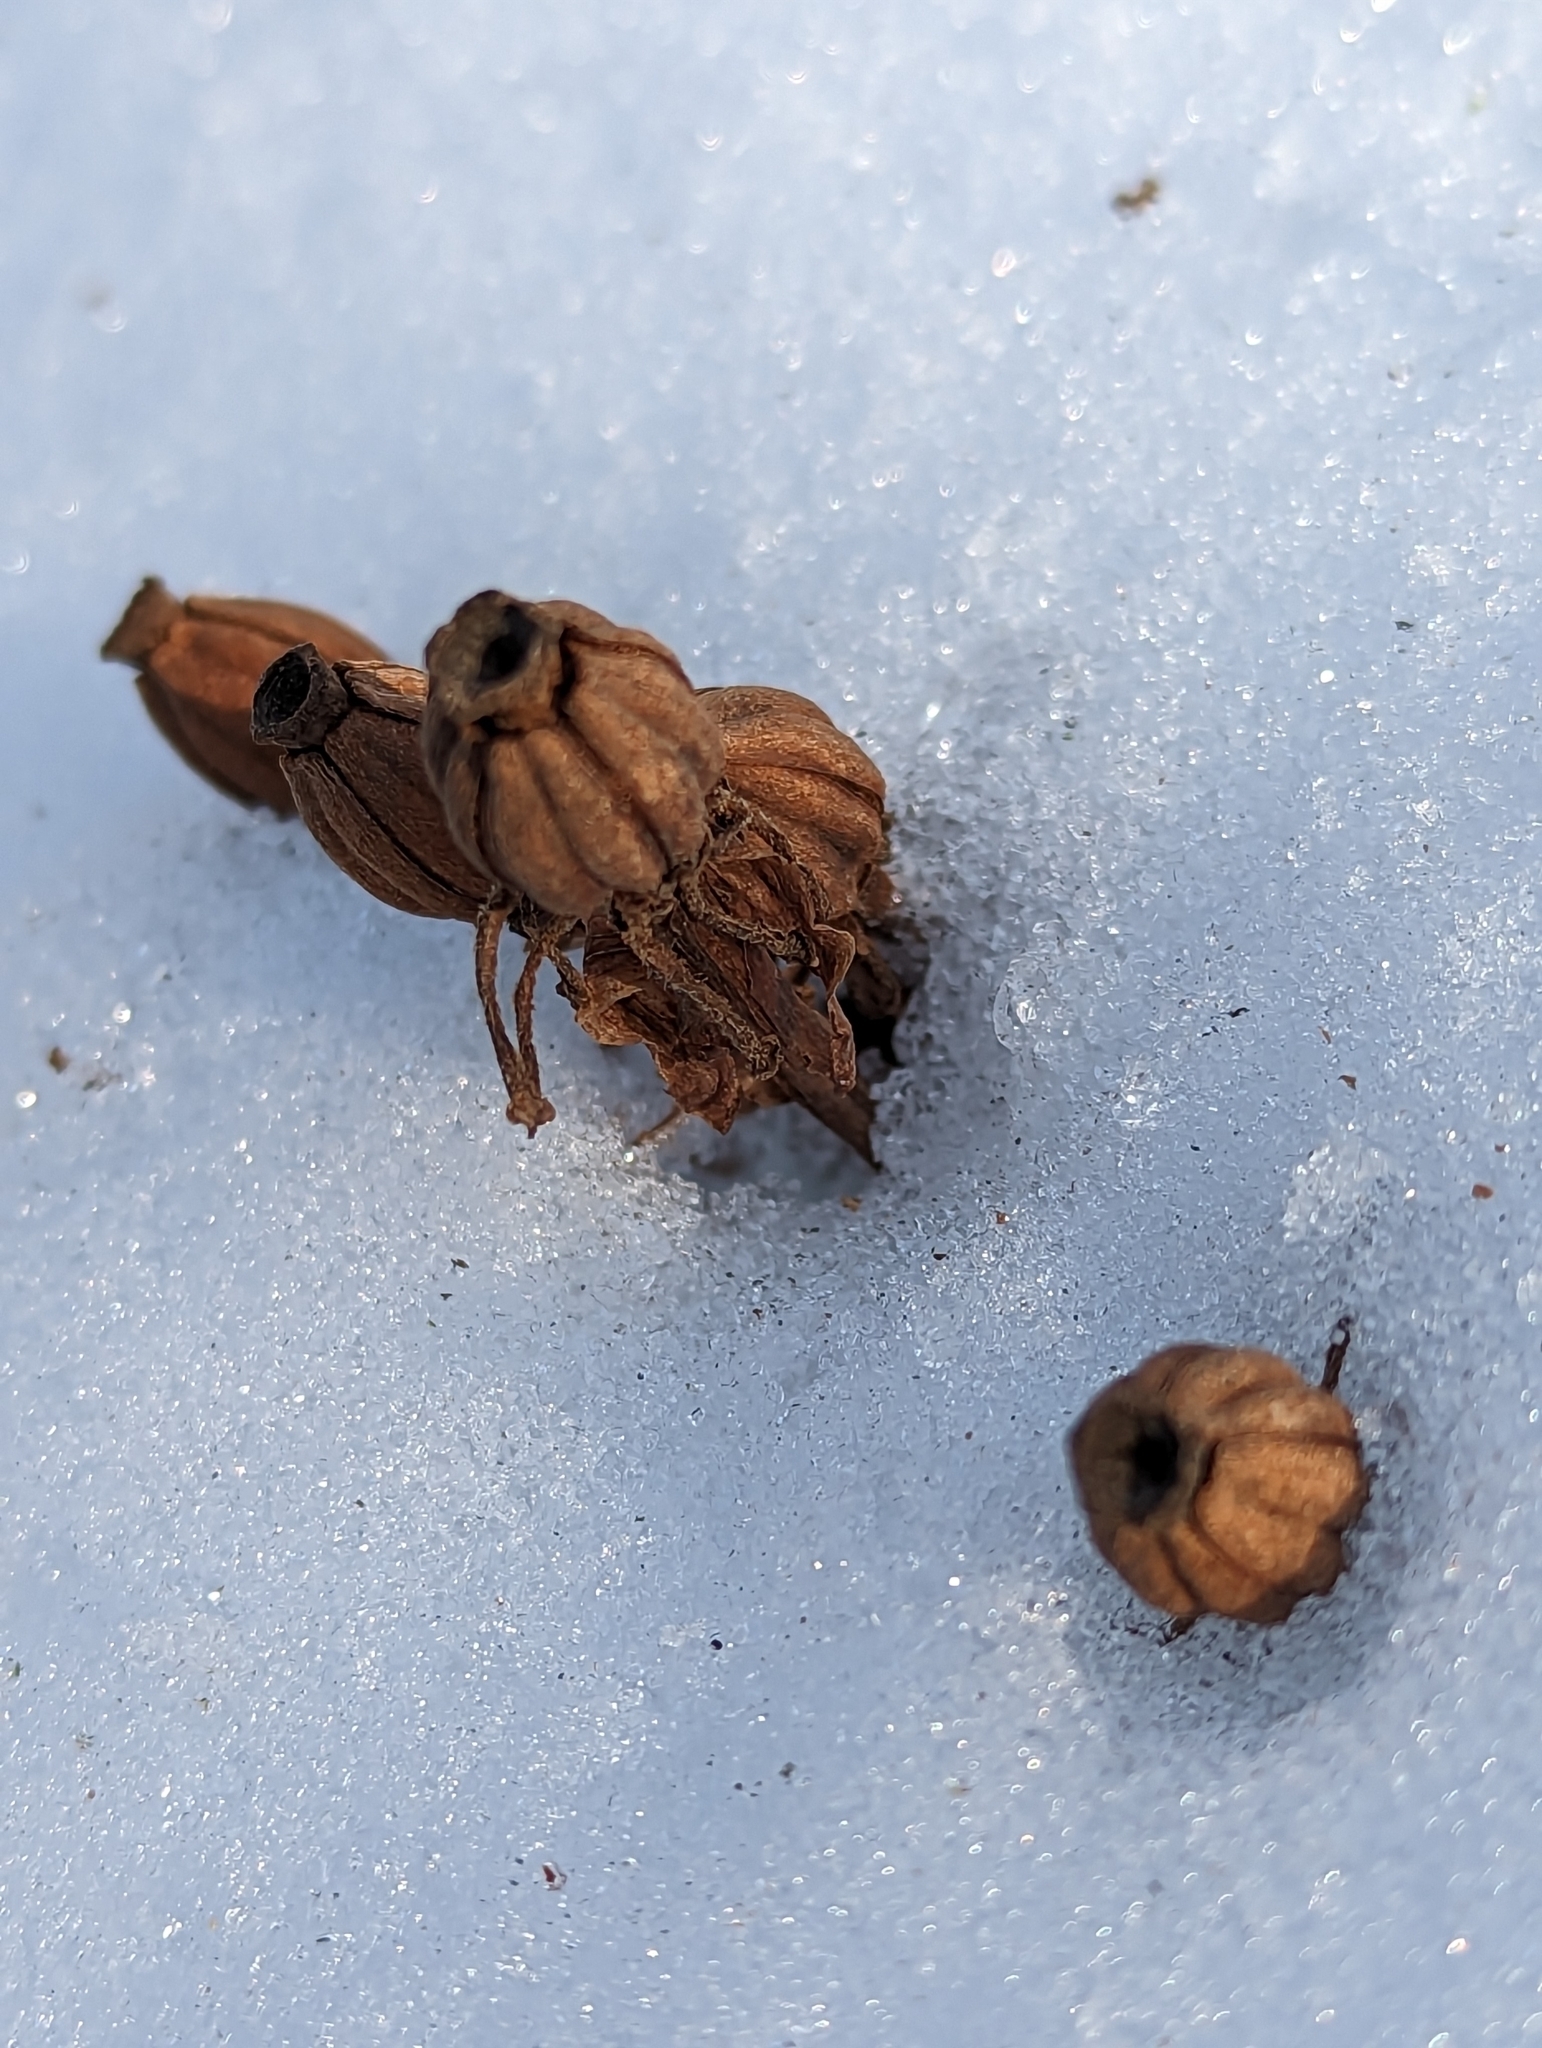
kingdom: Plantae
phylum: Tracheophyta
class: Magnoliopsida
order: Ericales
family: Ericaceae
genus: Monotropa
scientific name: Monotropa uniflora
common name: Convulsion root
